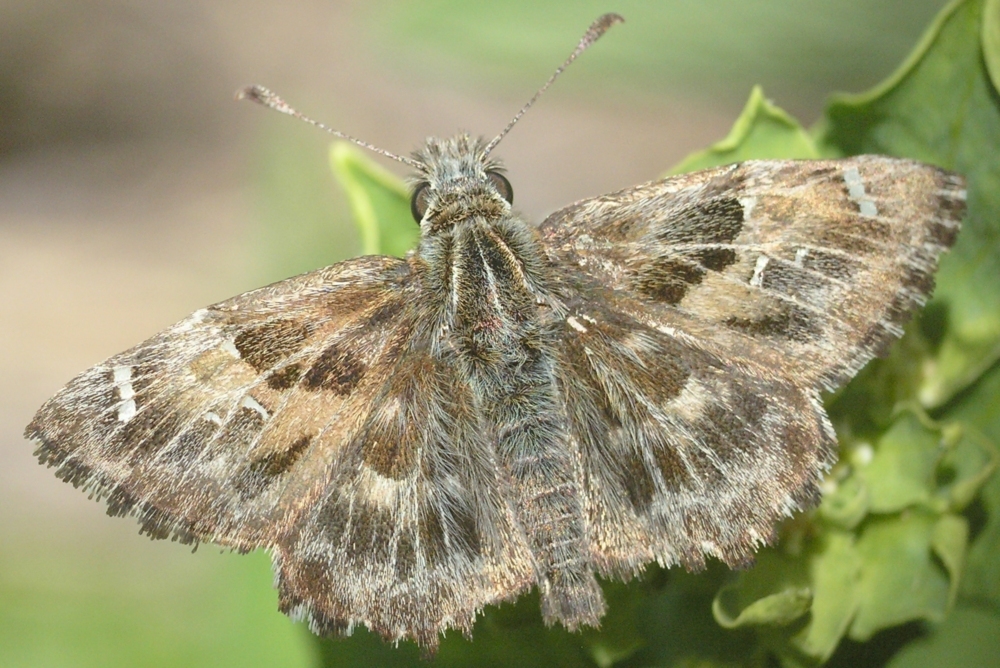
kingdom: Animalia
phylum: Arthropoda
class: Insecta
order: Lepidoptera
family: Hesperiidae
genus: Carcharodus
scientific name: Carcharodus alceae
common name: Mallow skipper
